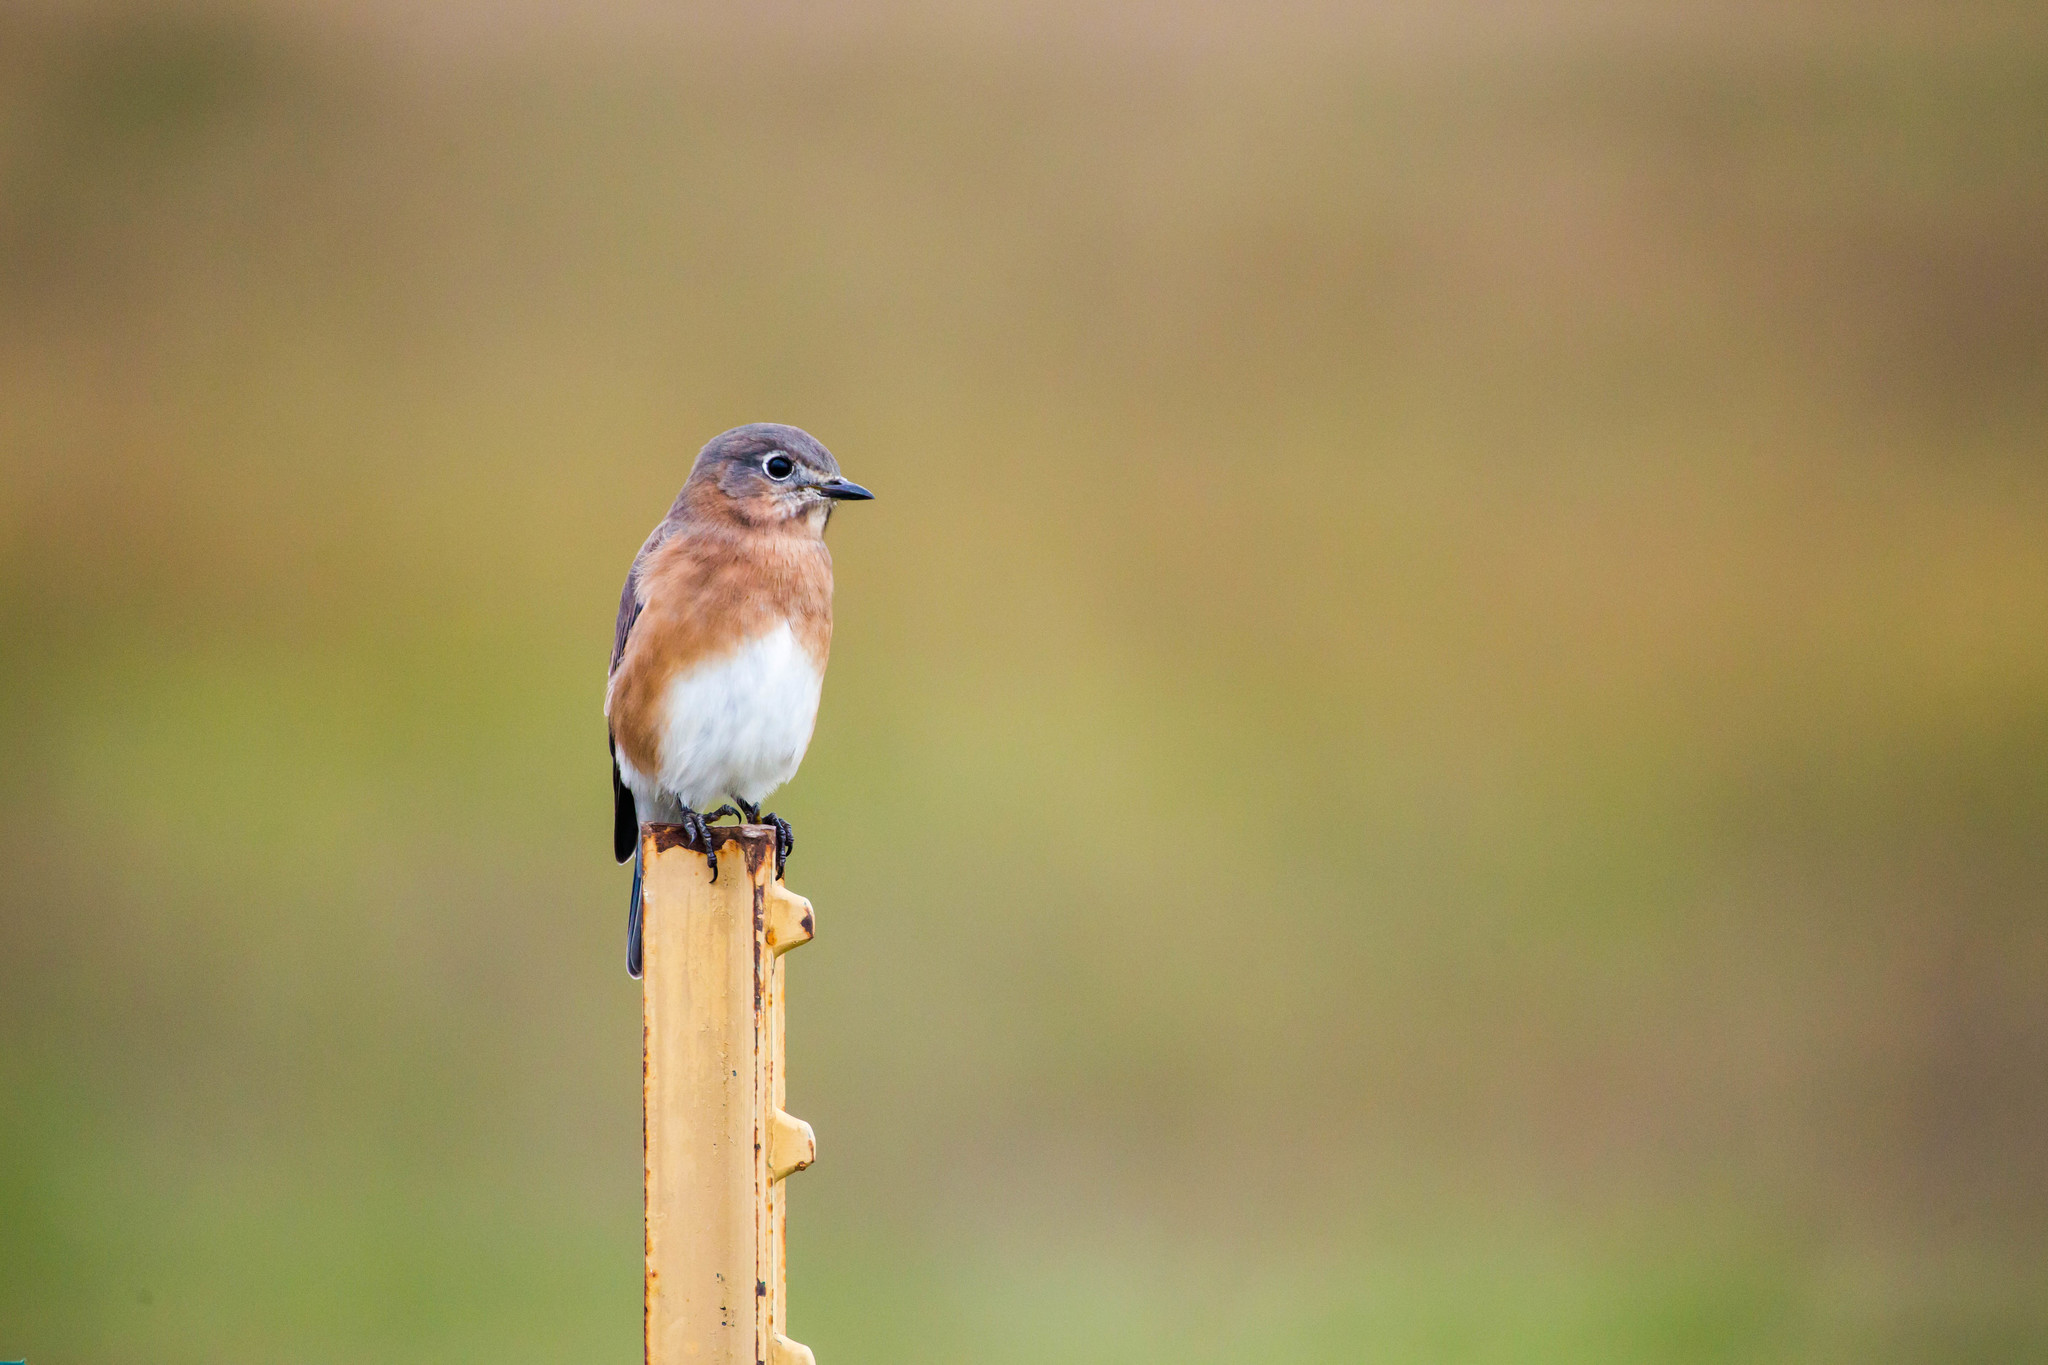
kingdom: Animalia
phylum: Chordata
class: Aves
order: Passeriformes
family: Turdidae
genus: Sialia
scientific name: Sialia sialis
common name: Eastern bluebird
